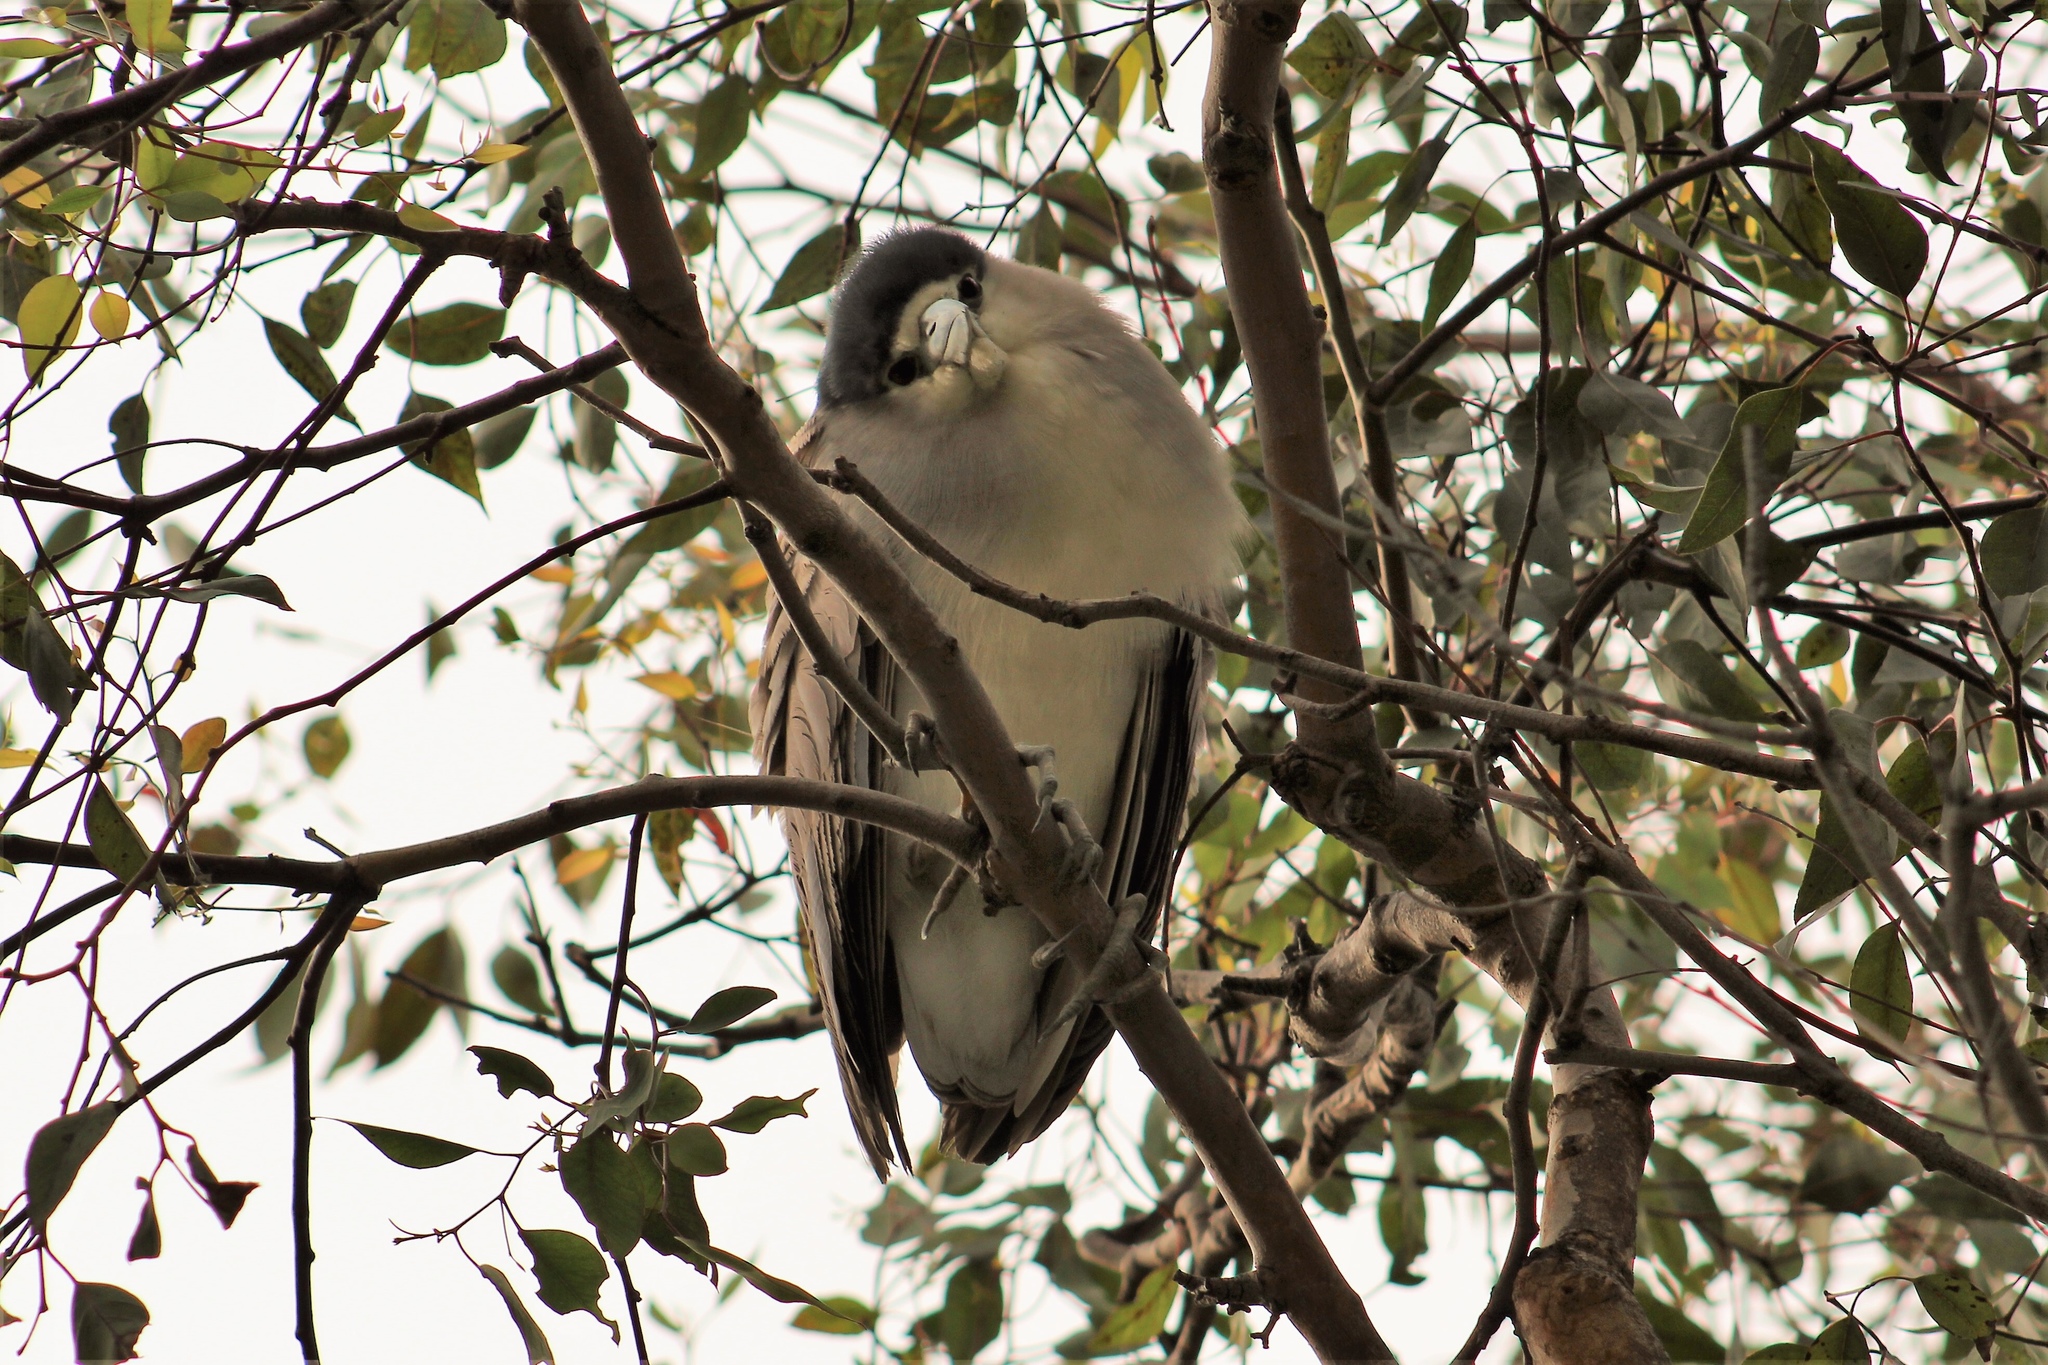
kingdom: Animalia
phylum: Chordata
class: Aves
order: Pelecaniformes
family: Ardeidae
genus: Nycticorax
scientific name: Nycticorax nycticorax
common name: Black-crowned night heron
